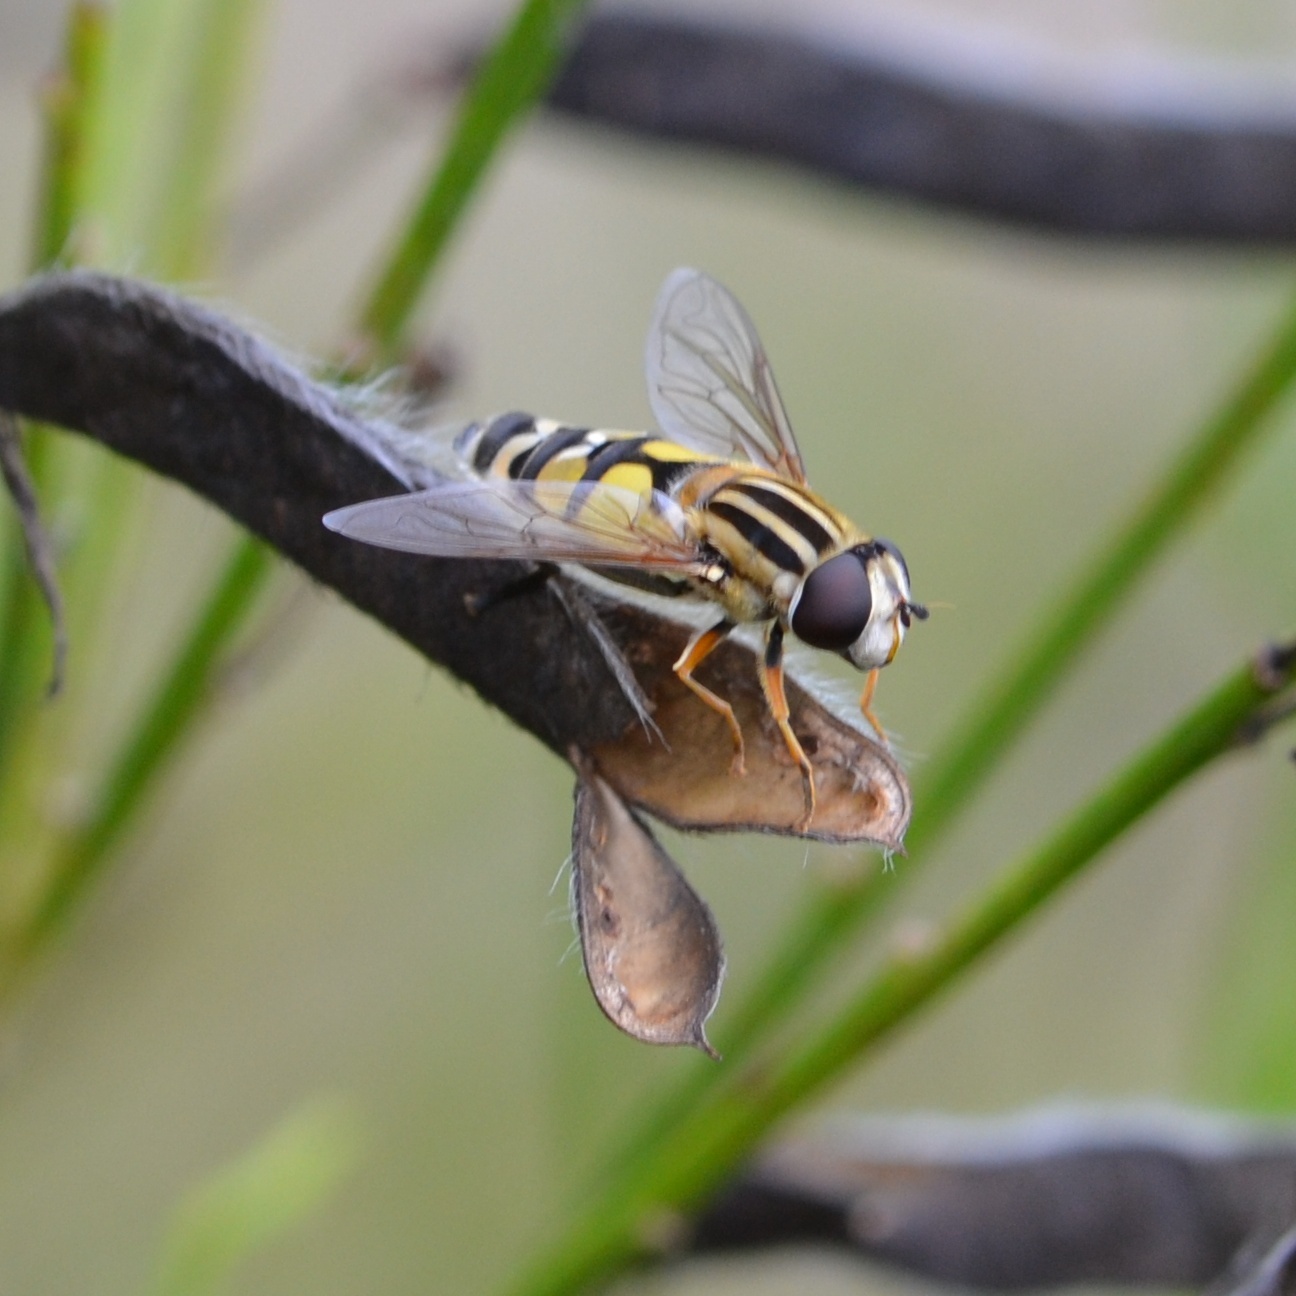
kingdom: Animalia
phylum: Arthropoda
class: Insecta
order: Diptera
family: Syrphidae
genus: Helophilus
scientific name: Helophilus trivittatus
